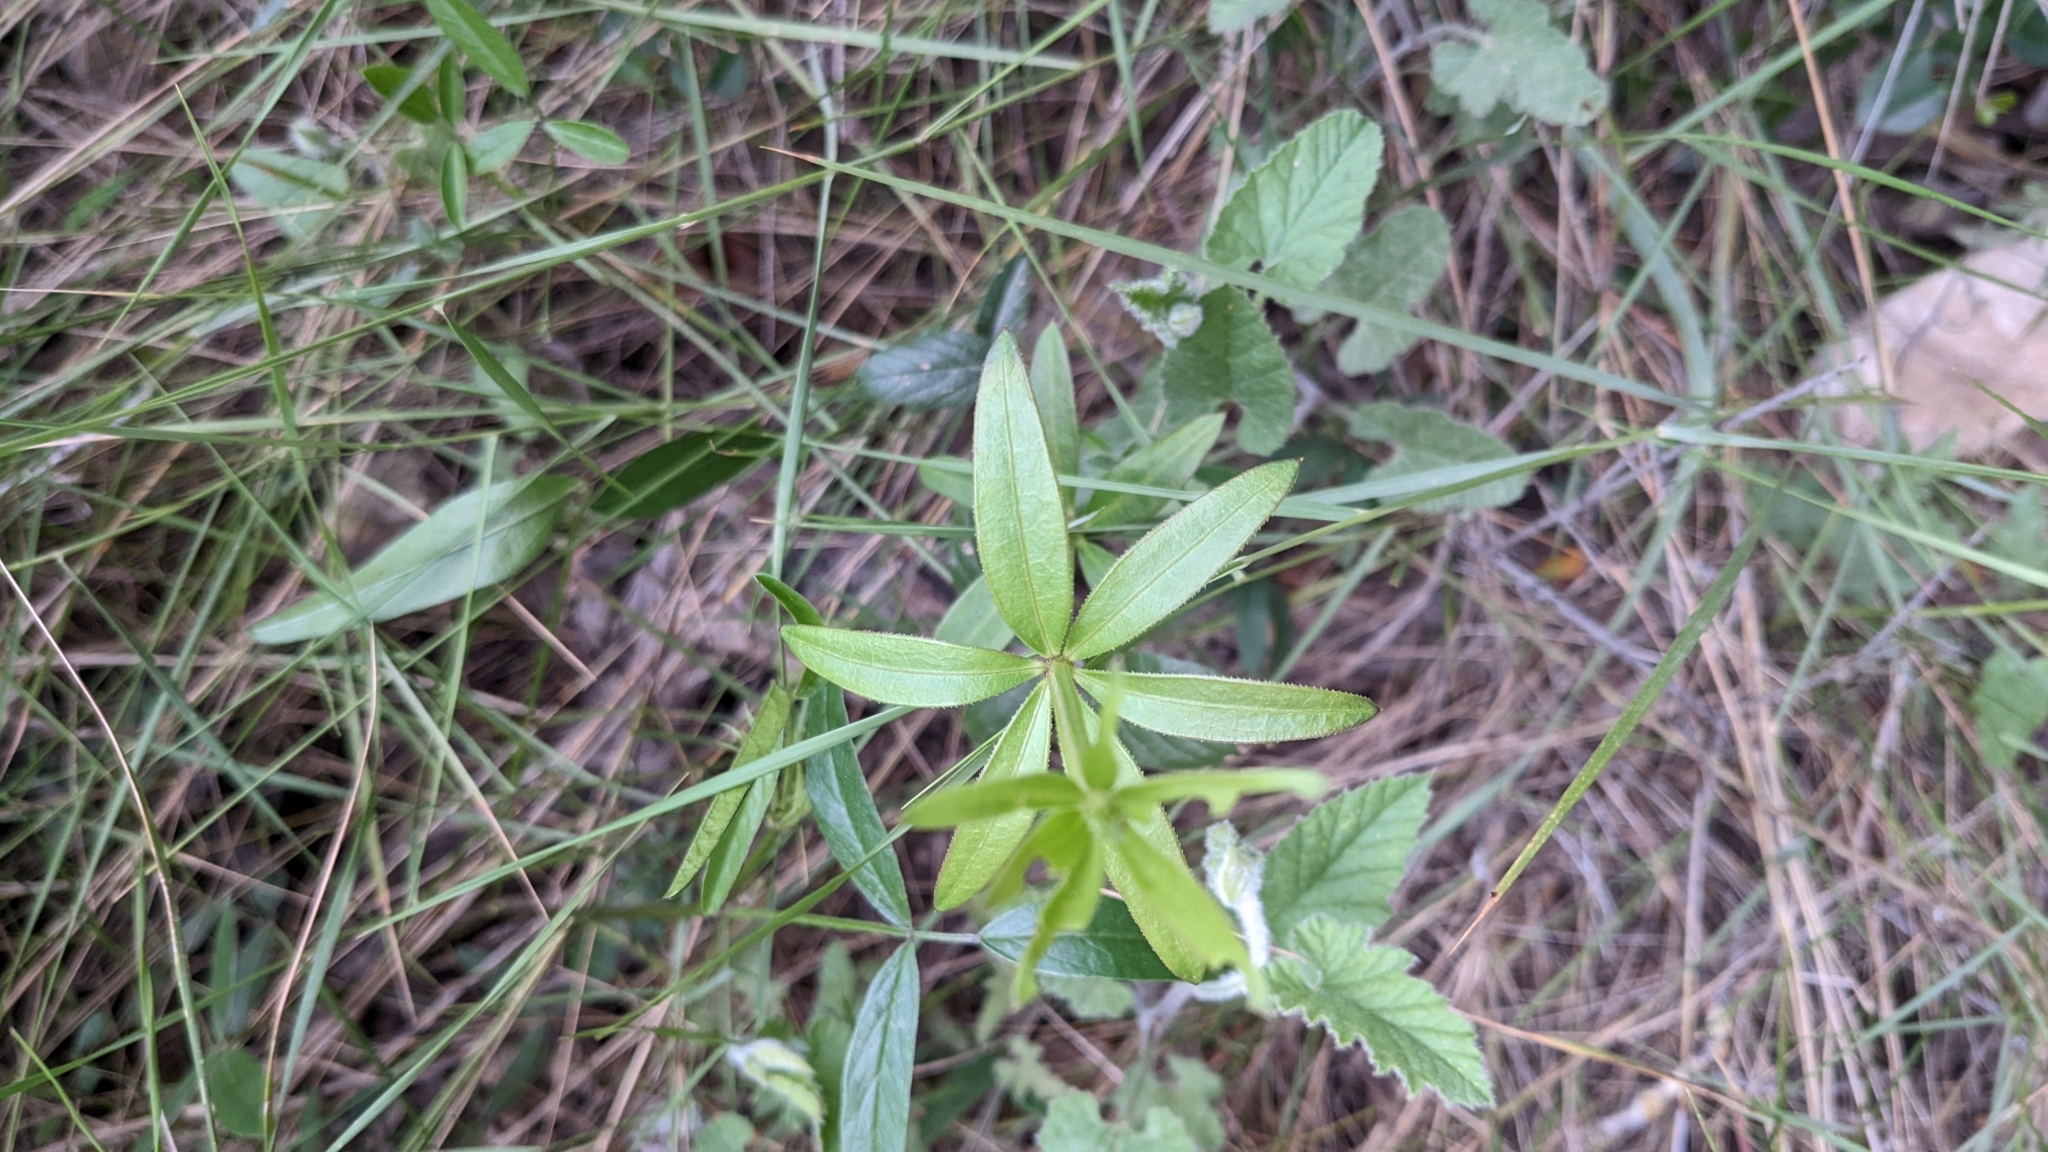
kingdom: Plantae
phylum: Tracheophyta
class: Magnoliopsida
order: Gentianales
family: Rubiaceae
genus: Rubia
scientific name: Rubia peregrina
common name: Wild madder
